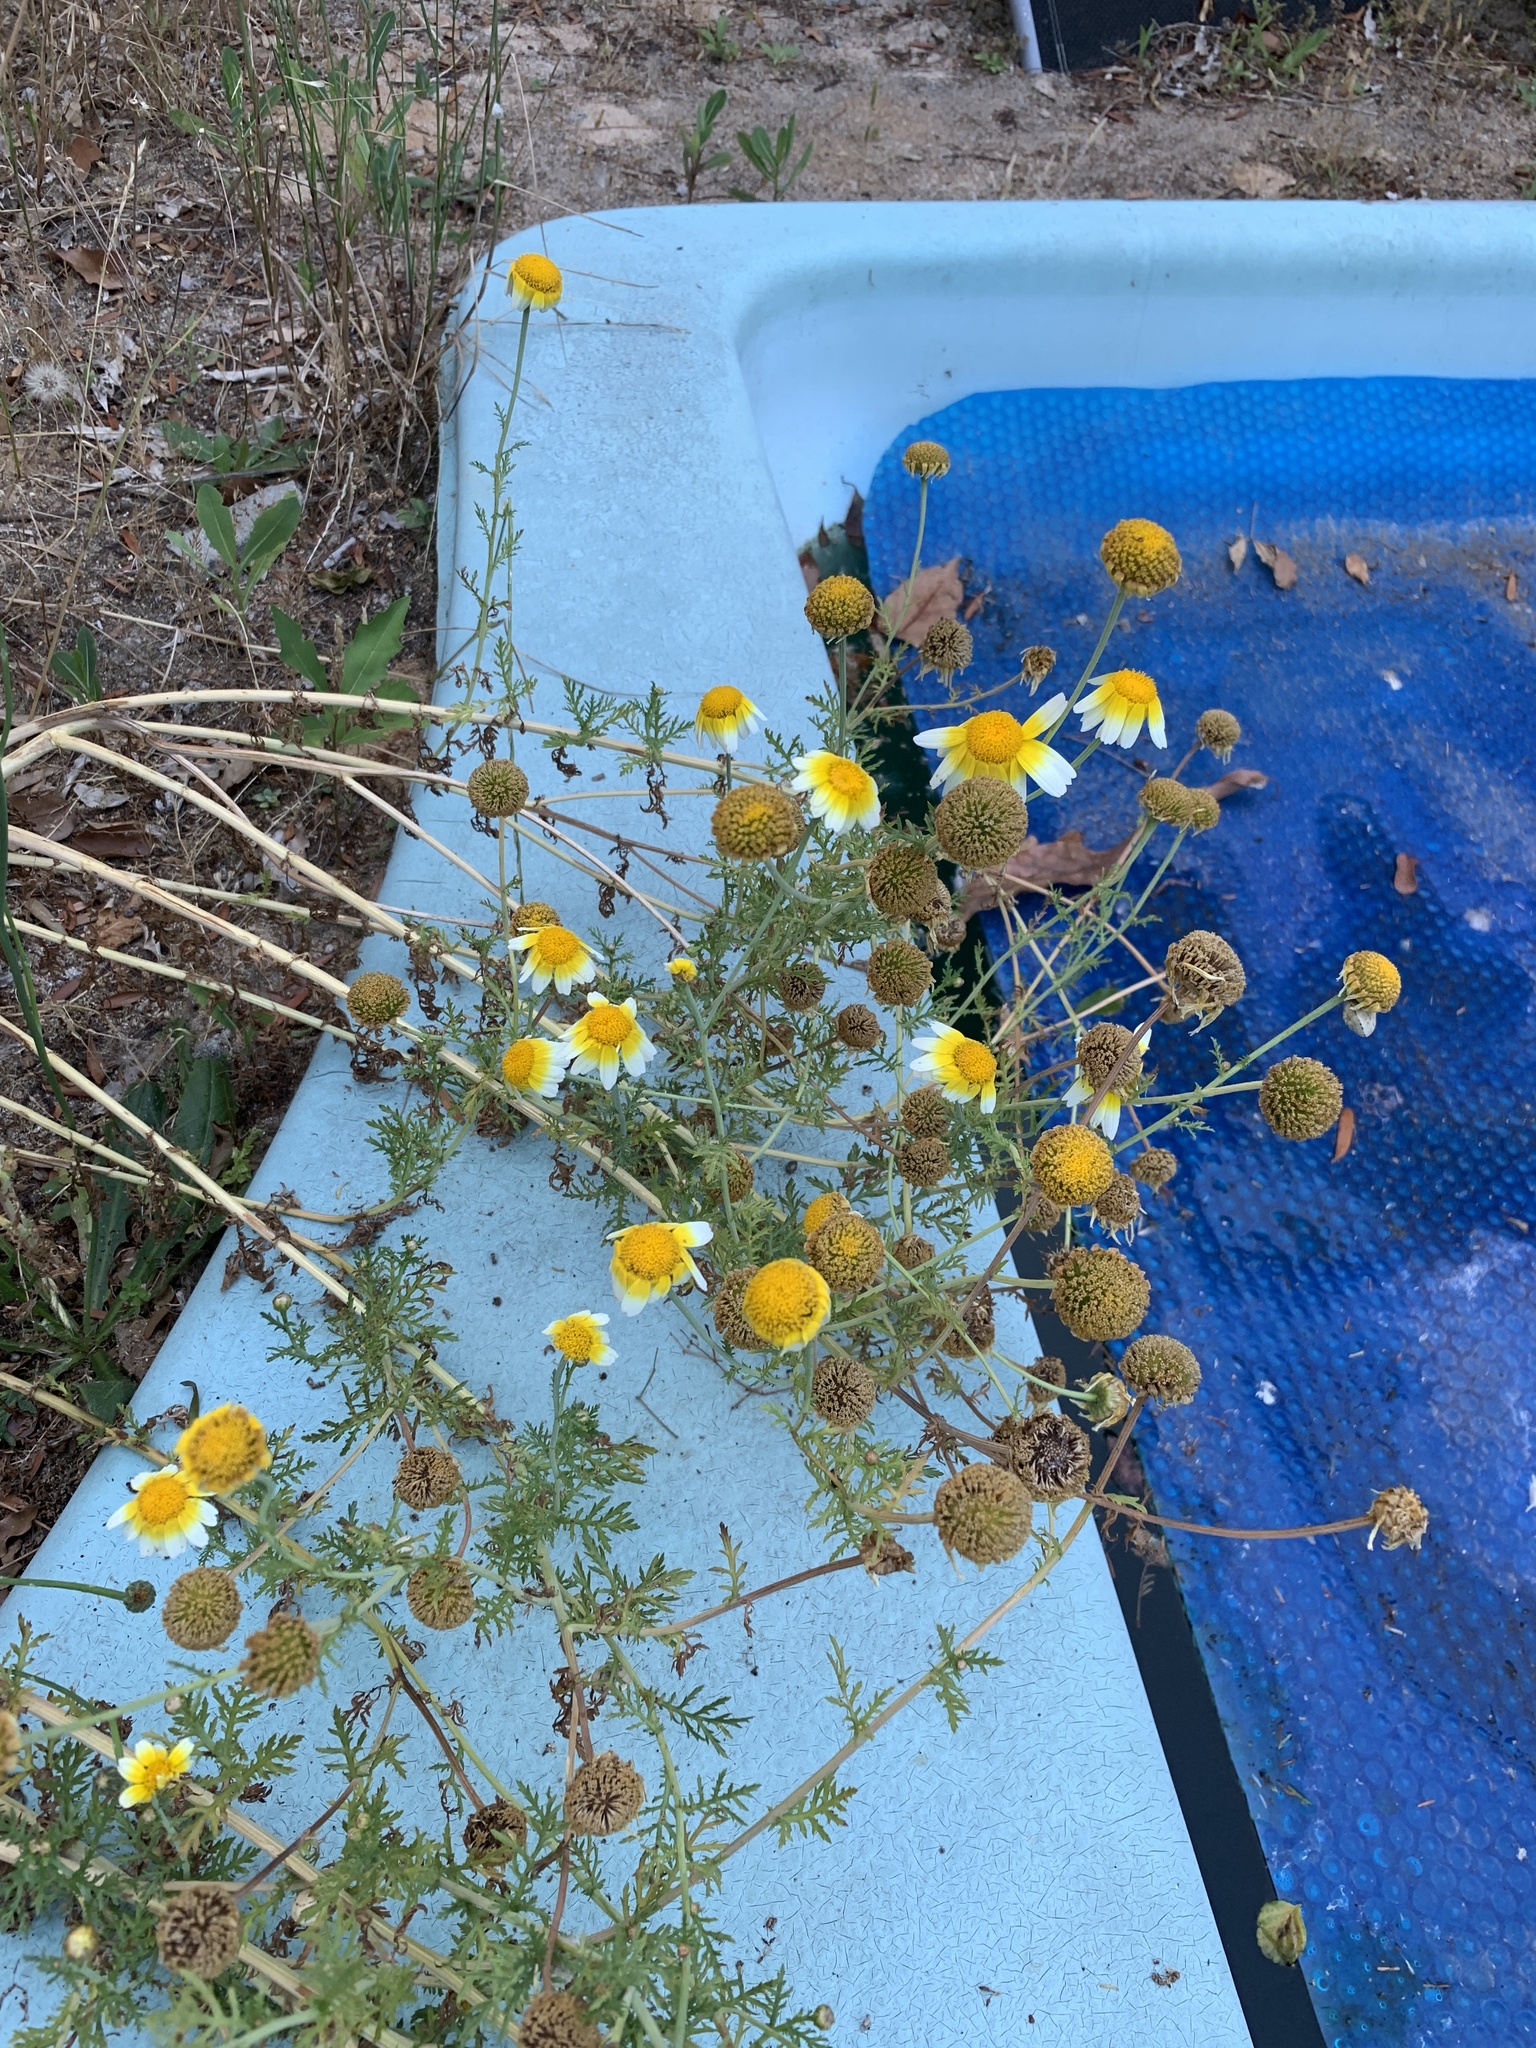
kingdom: Plantae
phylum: Tracheophyta
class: Magnoliopsida
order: Asterales
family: Asteraceae
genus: Glebionis
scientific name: Glebionis coronaria
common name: Crowndaisy
